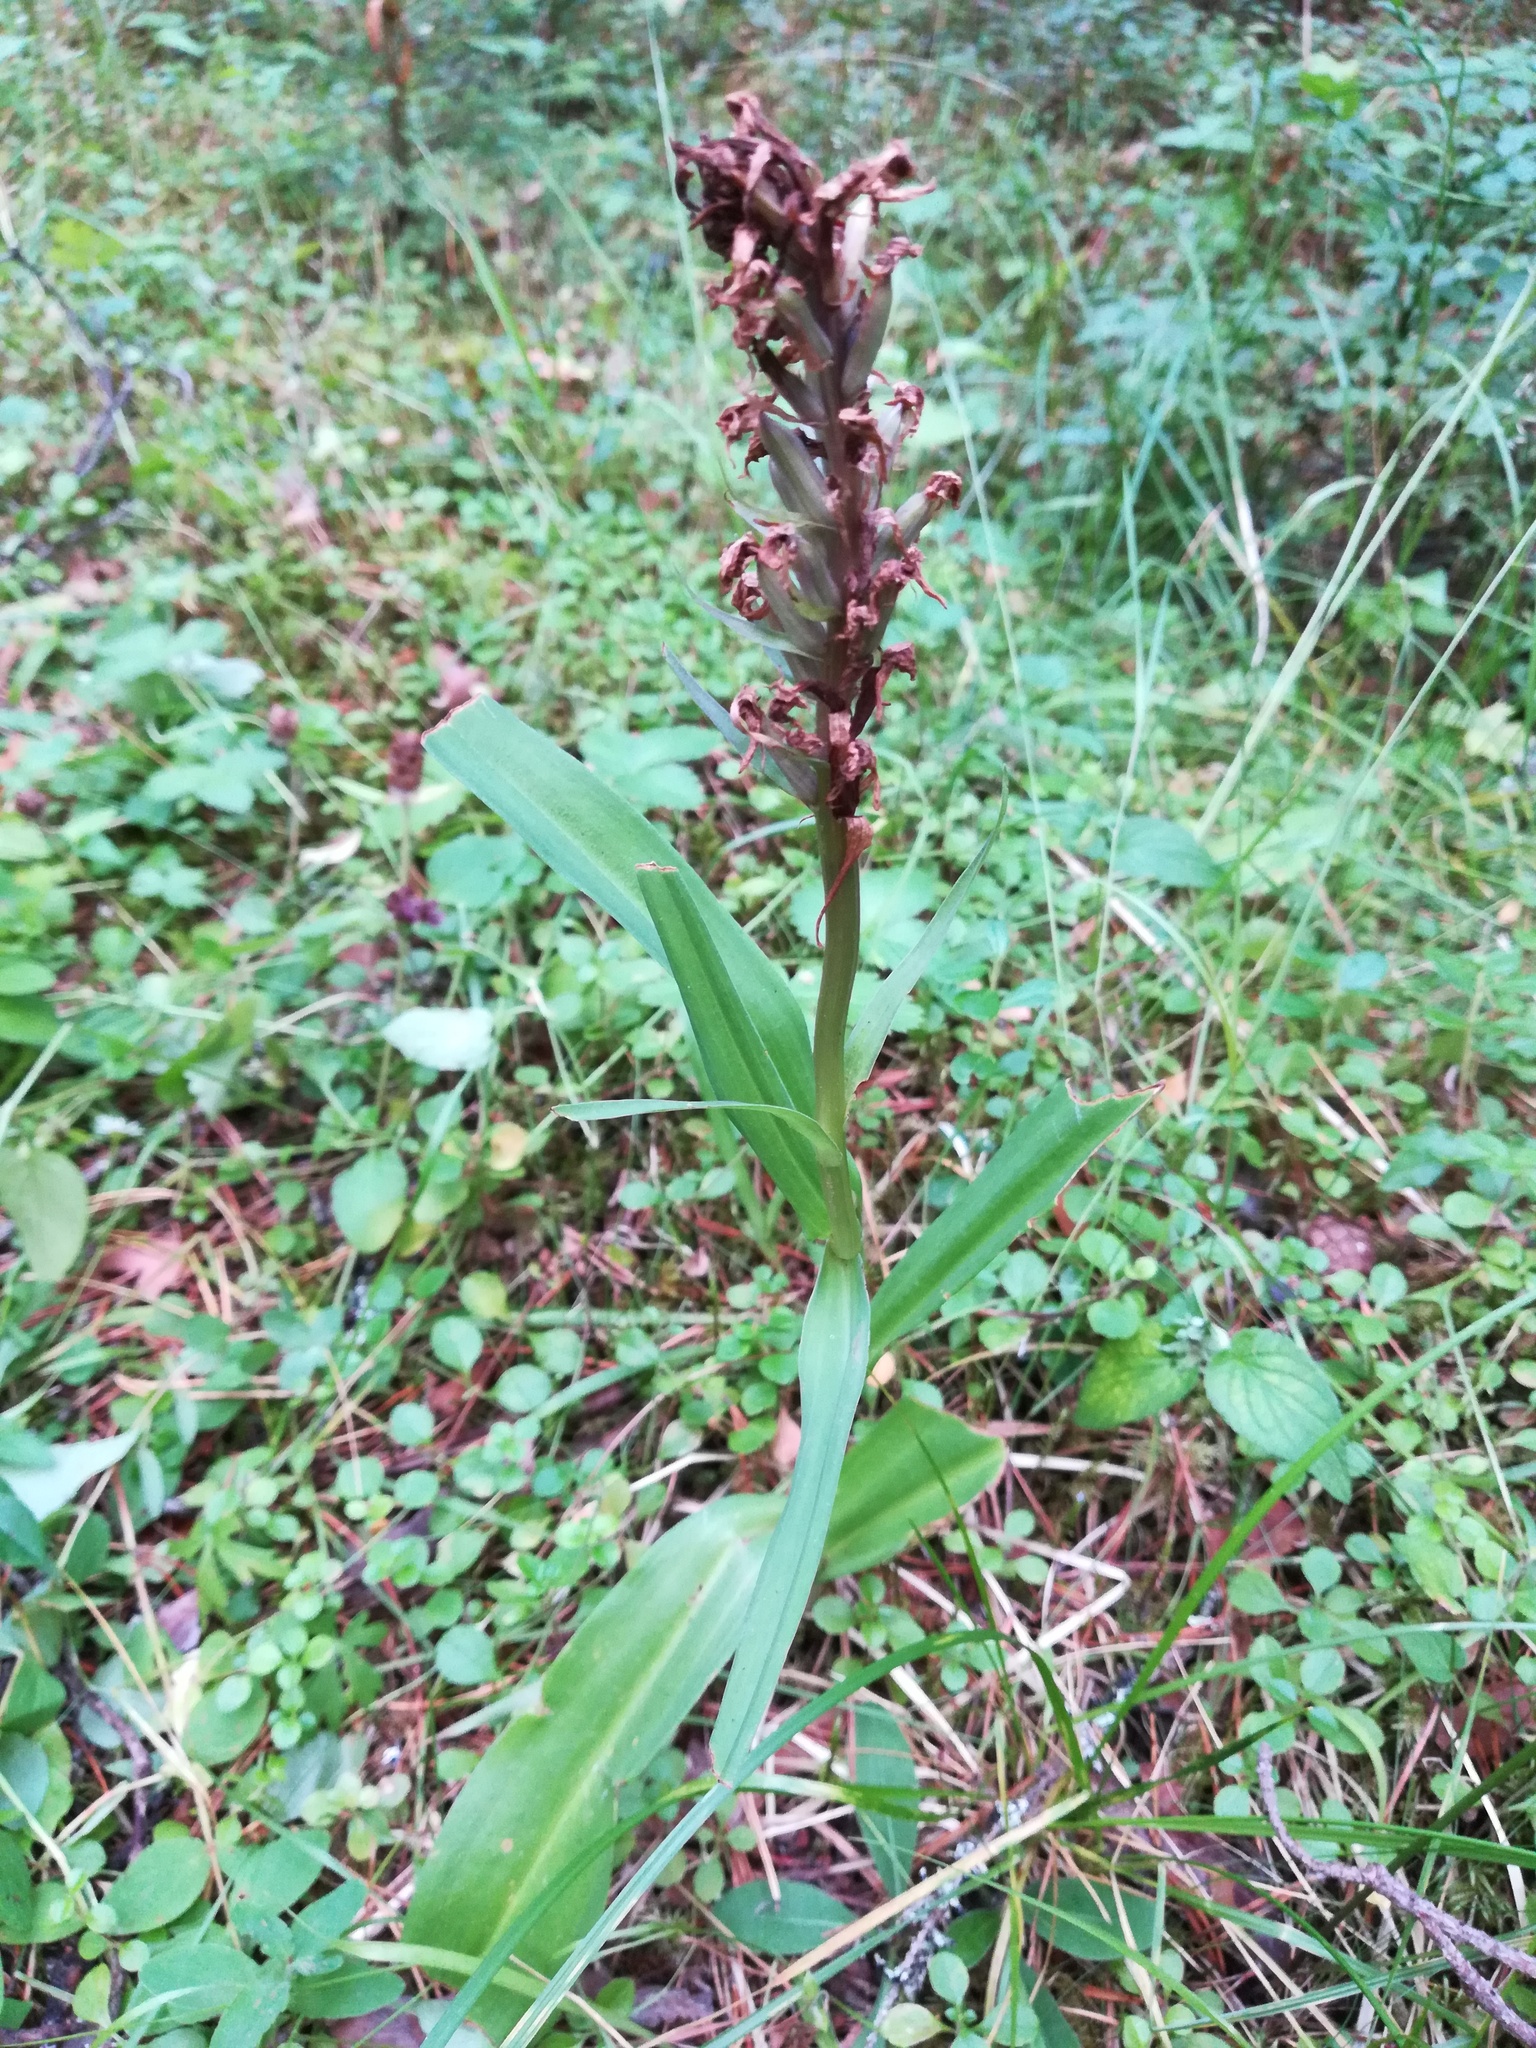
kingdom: Plantae
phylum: Tracheophyta
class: Liliopsida
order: Asparagales
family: Orchidaceae
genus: Dactylorhiza
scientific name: Dactylorhiza
